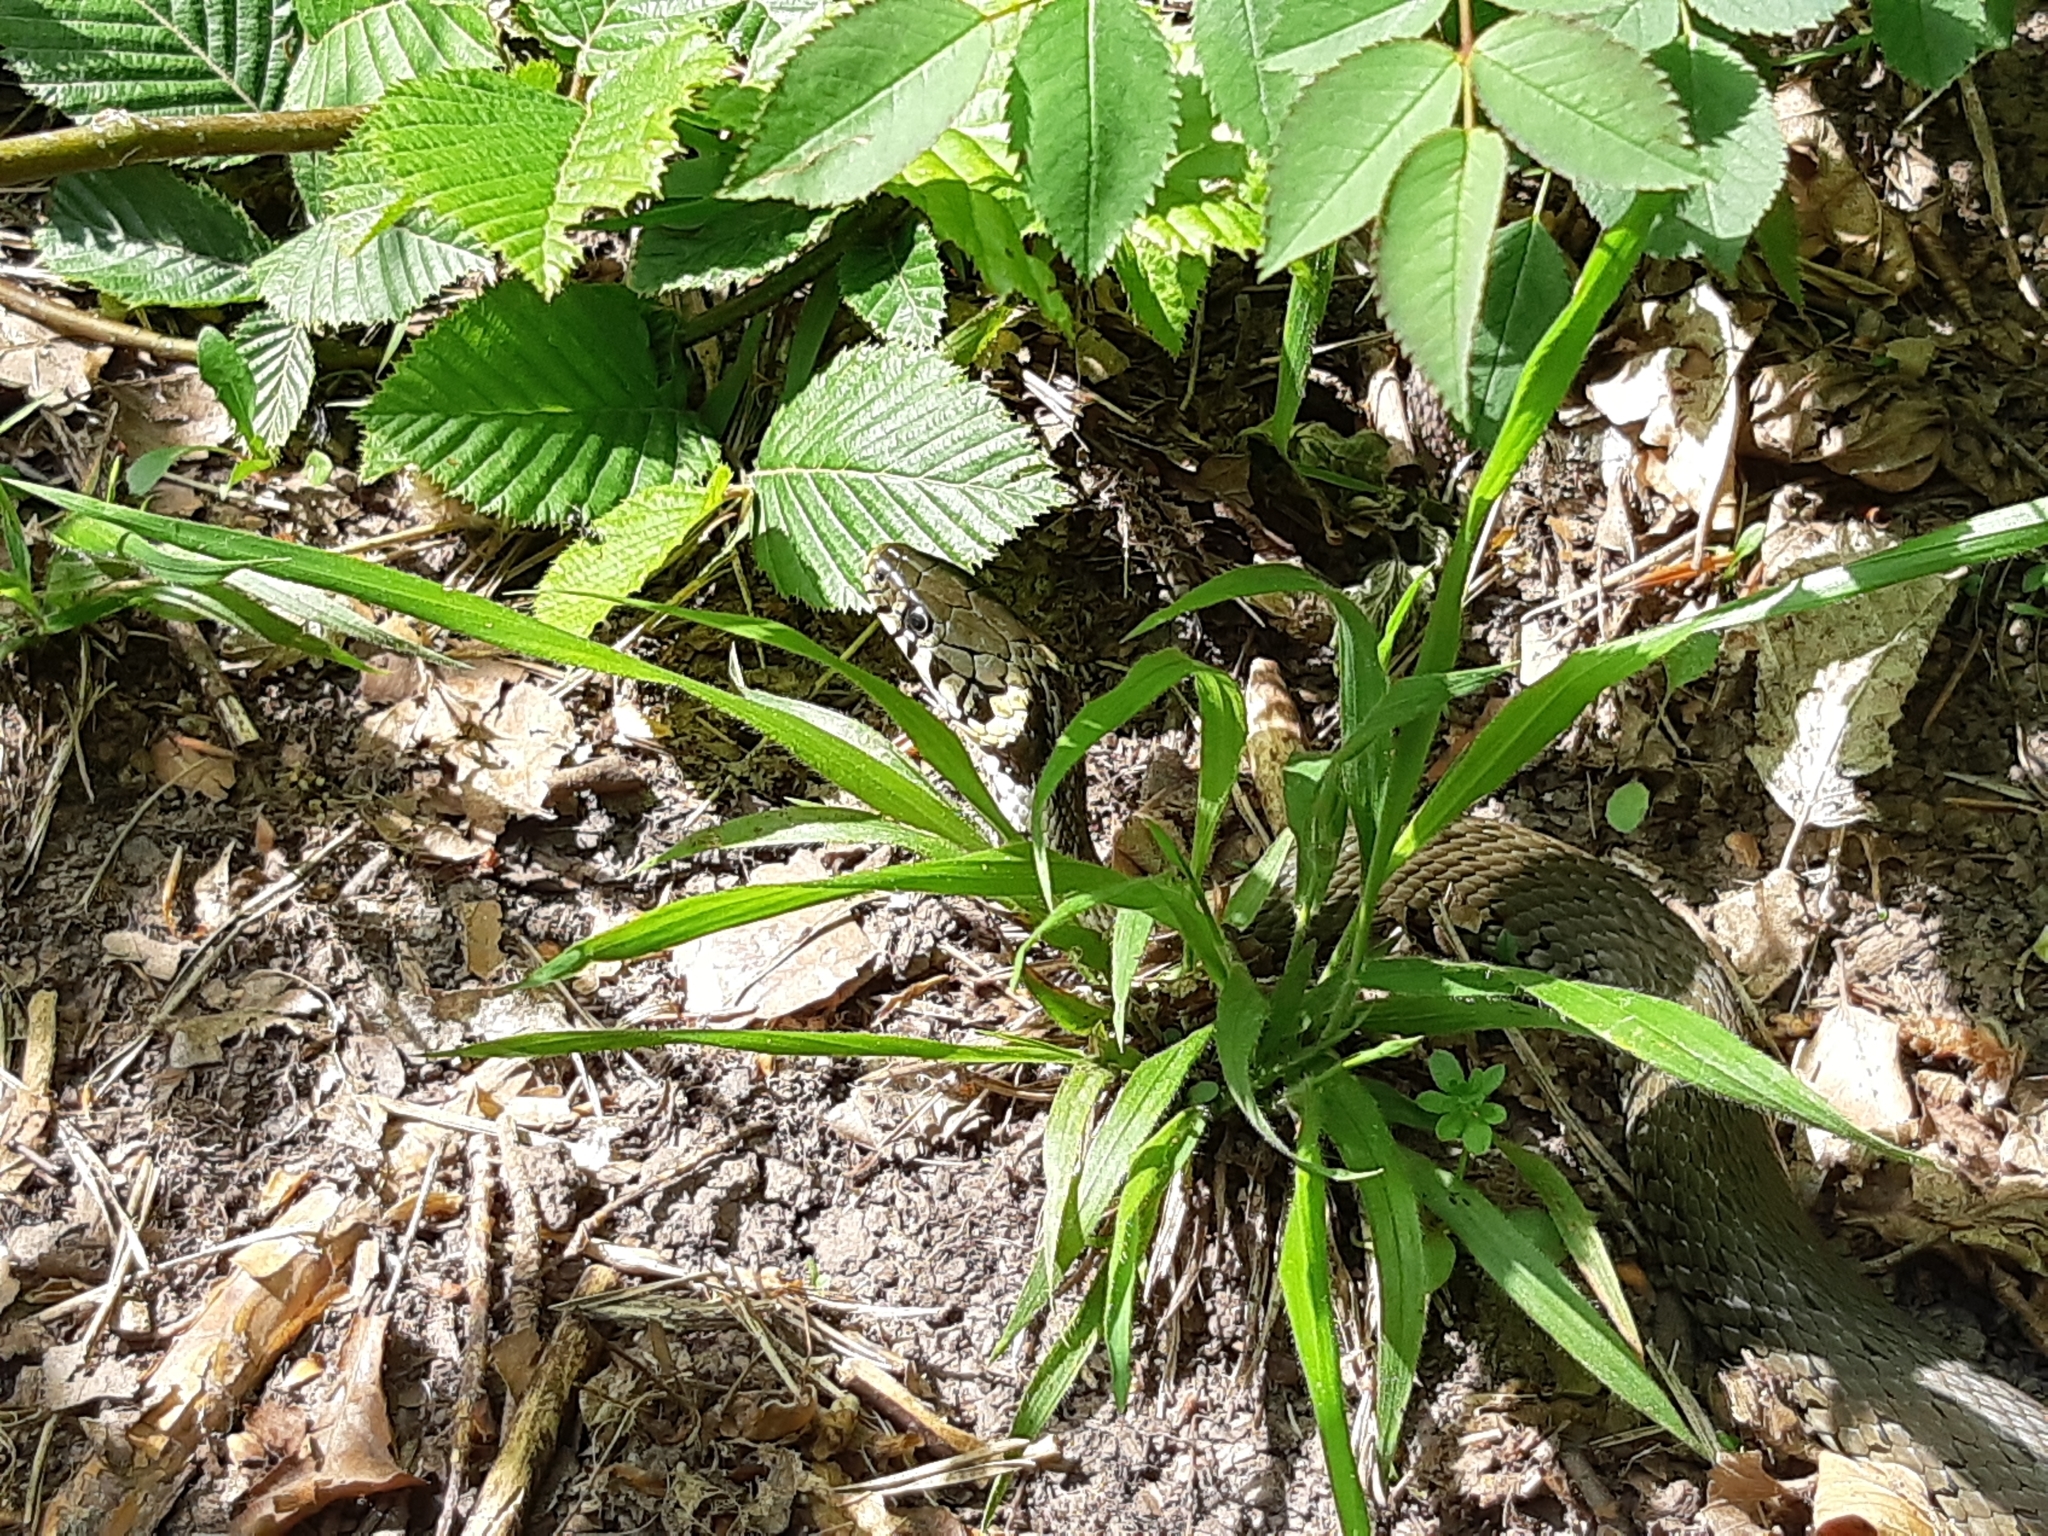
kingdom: Animalia
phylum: Chordata
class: Squamata
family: Colubridae
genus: Natrix
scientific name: Natrix natrix
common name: Grass snake
